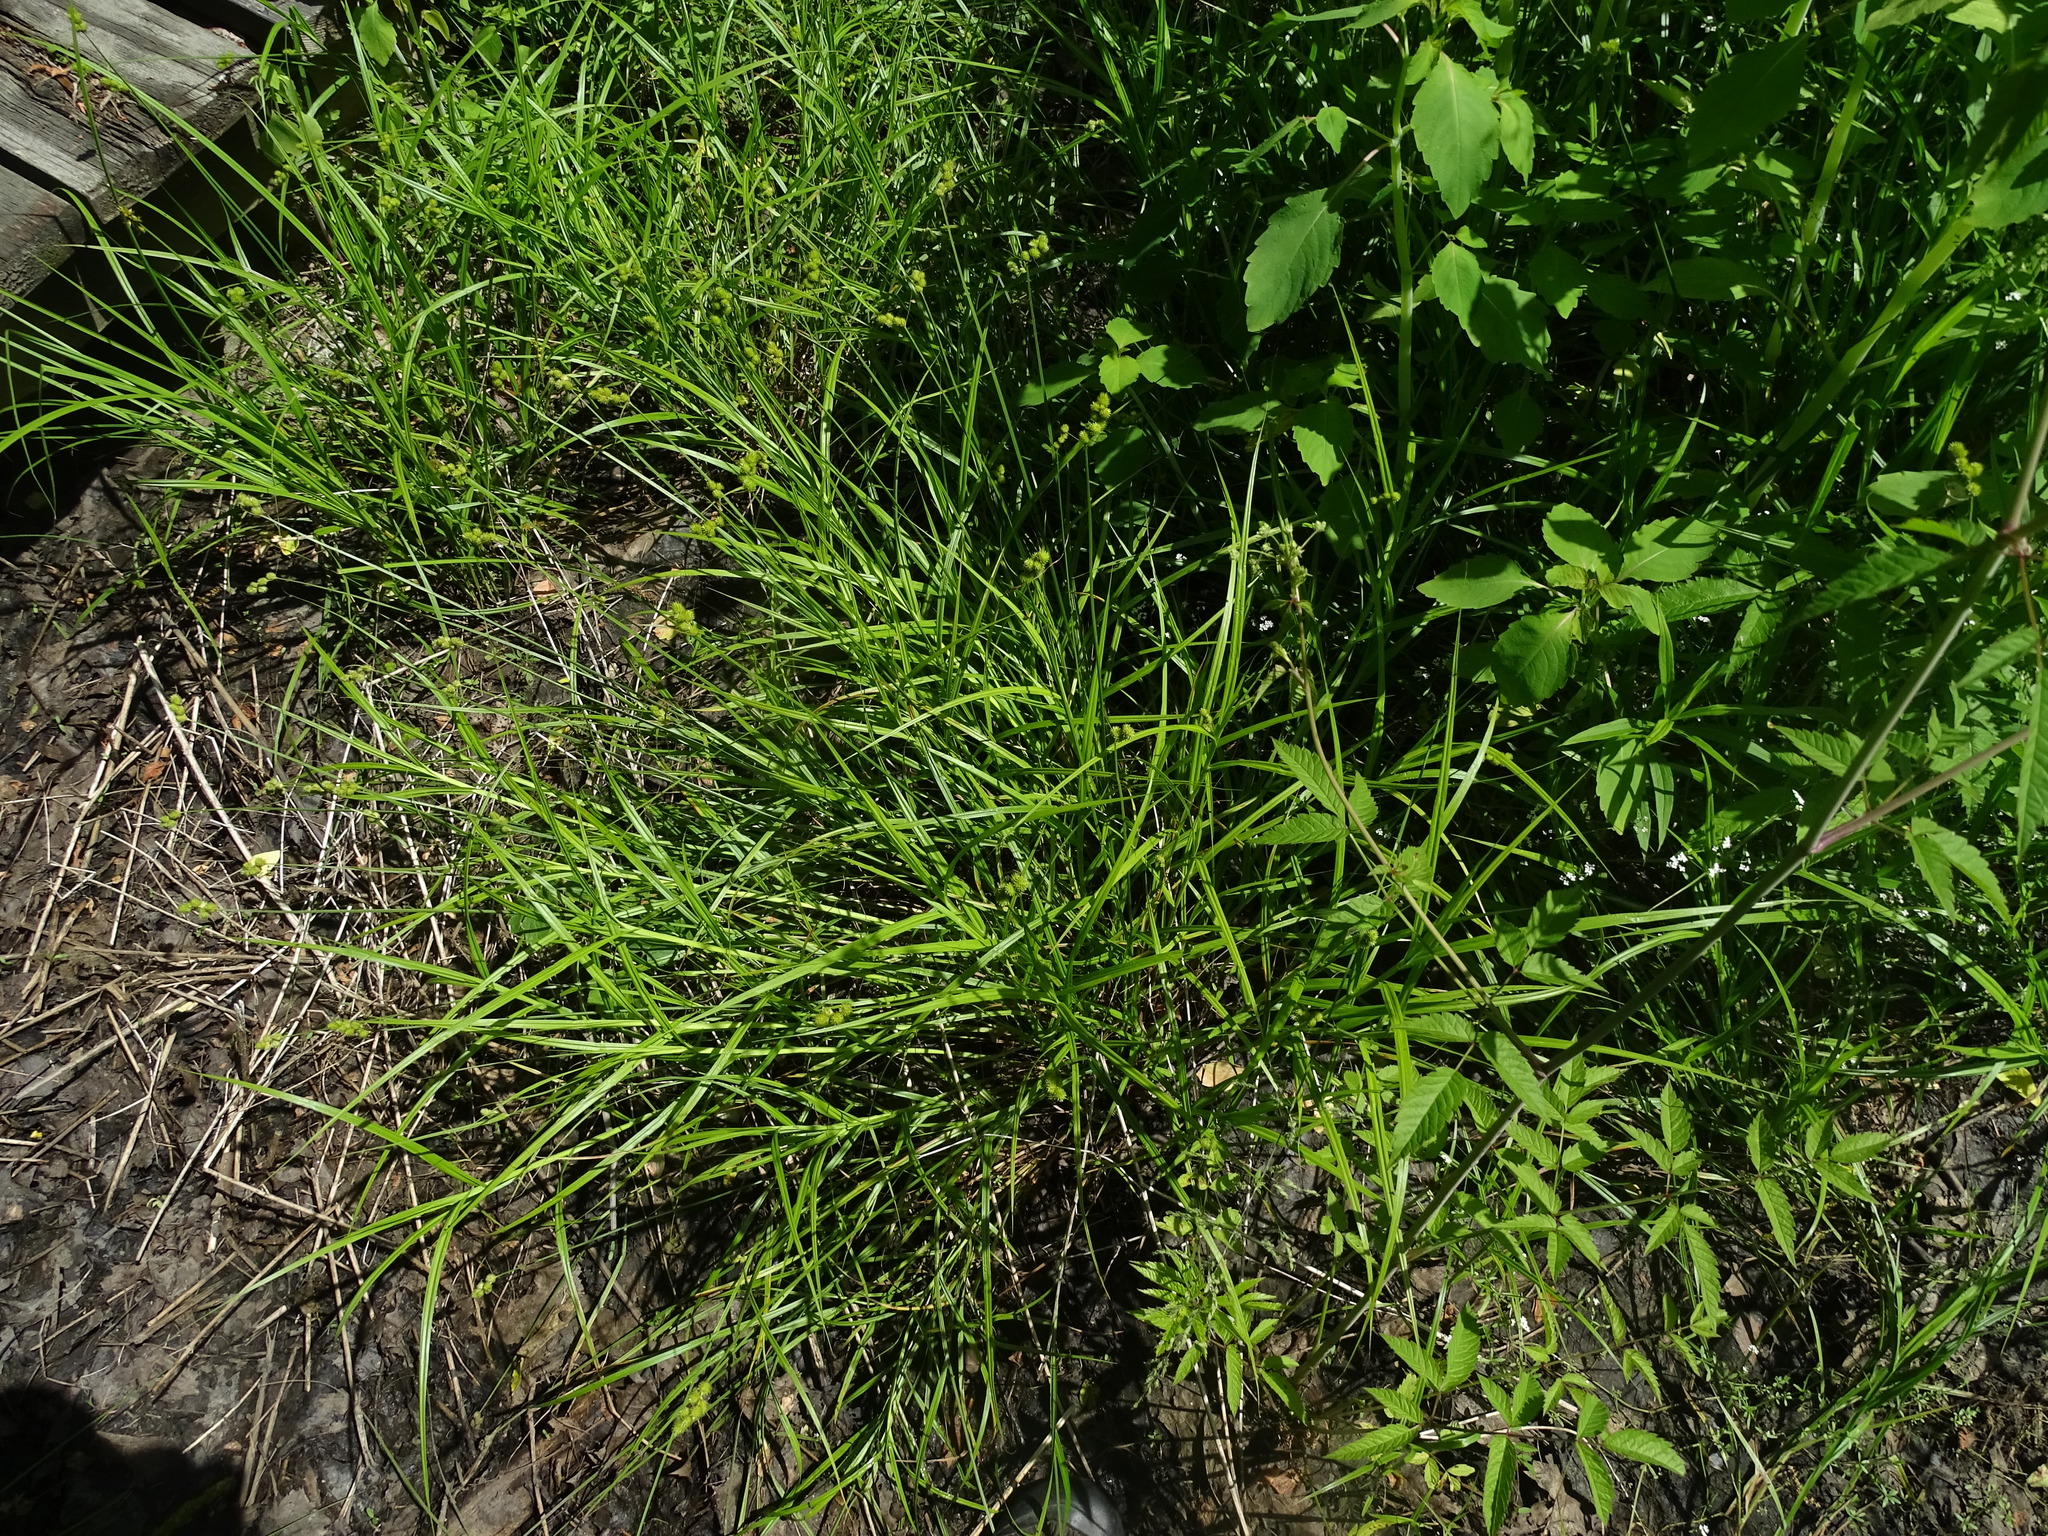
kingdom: Plantae
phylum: Tracheophyta
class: Liliopsida
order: Poales
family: Cyperaceae
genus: Carex
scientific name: Carex cristatella
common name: Crested oval sedge
